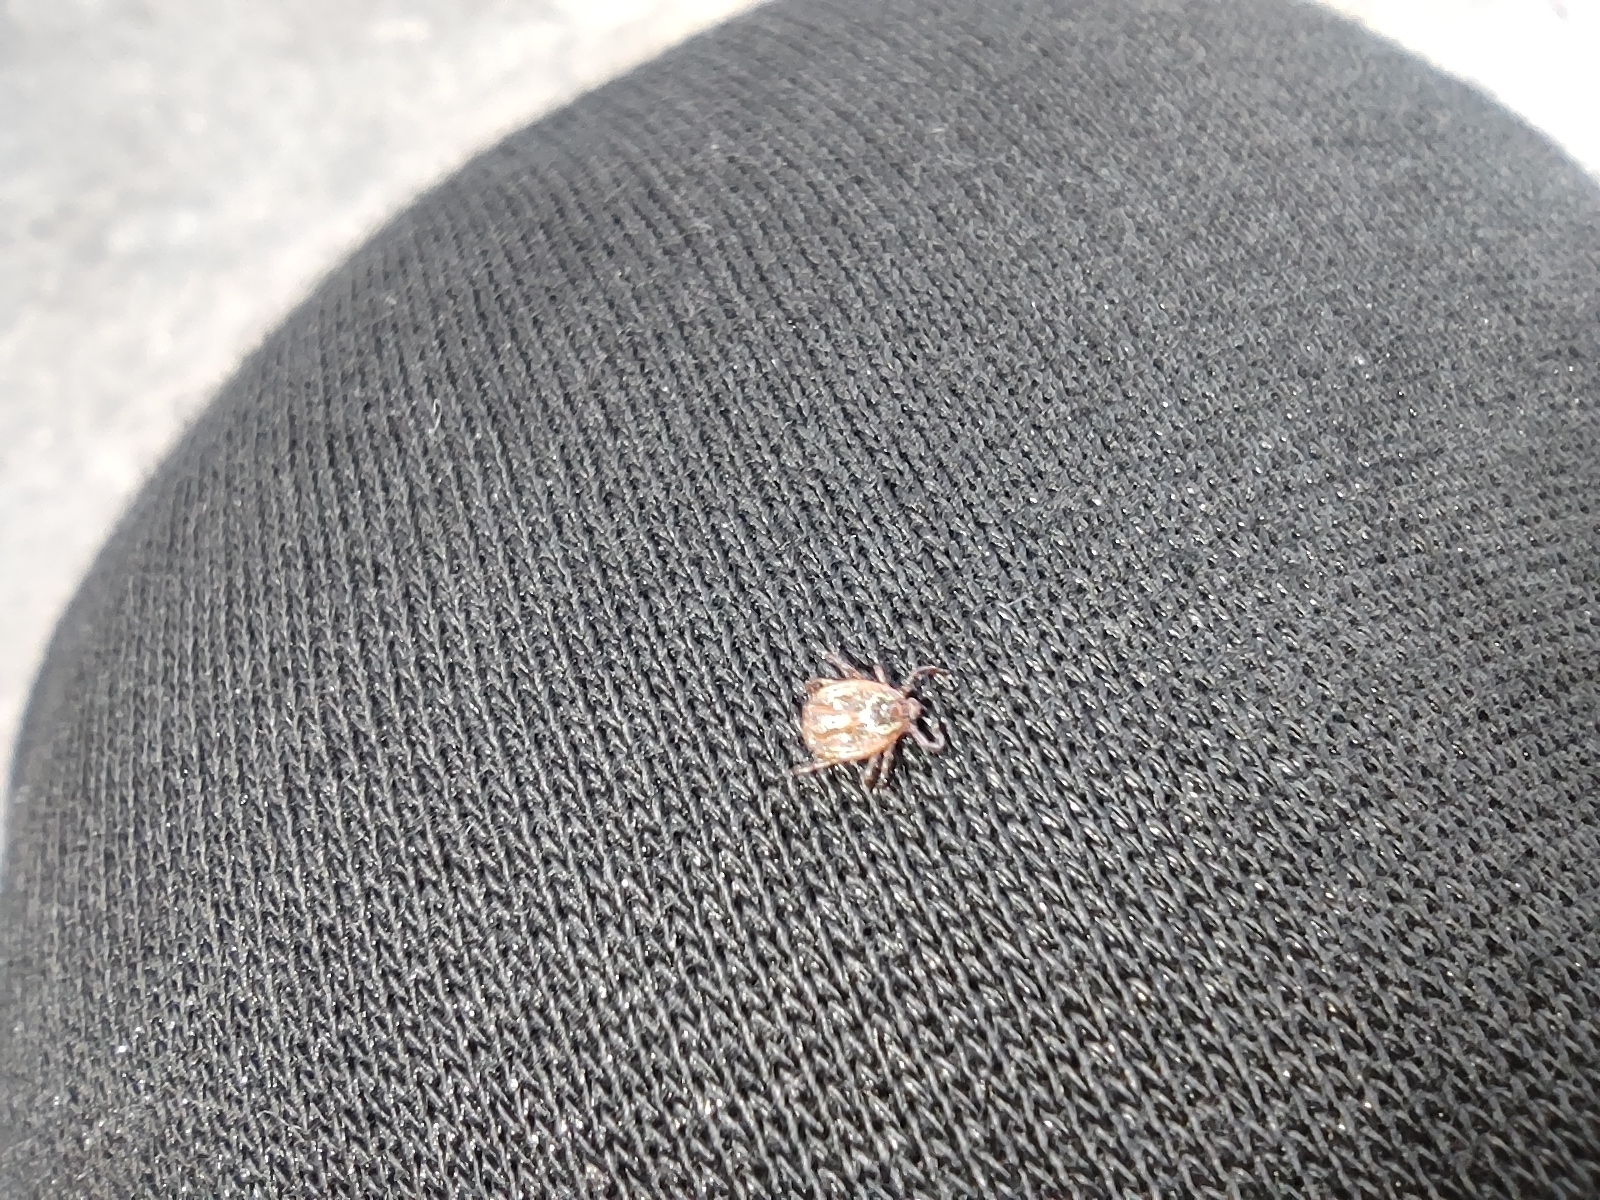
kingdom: Animalia
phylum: Arthropoda
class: Arachnida
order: Ixodida
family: Ixodidae
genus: Dermacentor
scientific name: Dermacentor reticulatus
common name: Ornate cow tick
